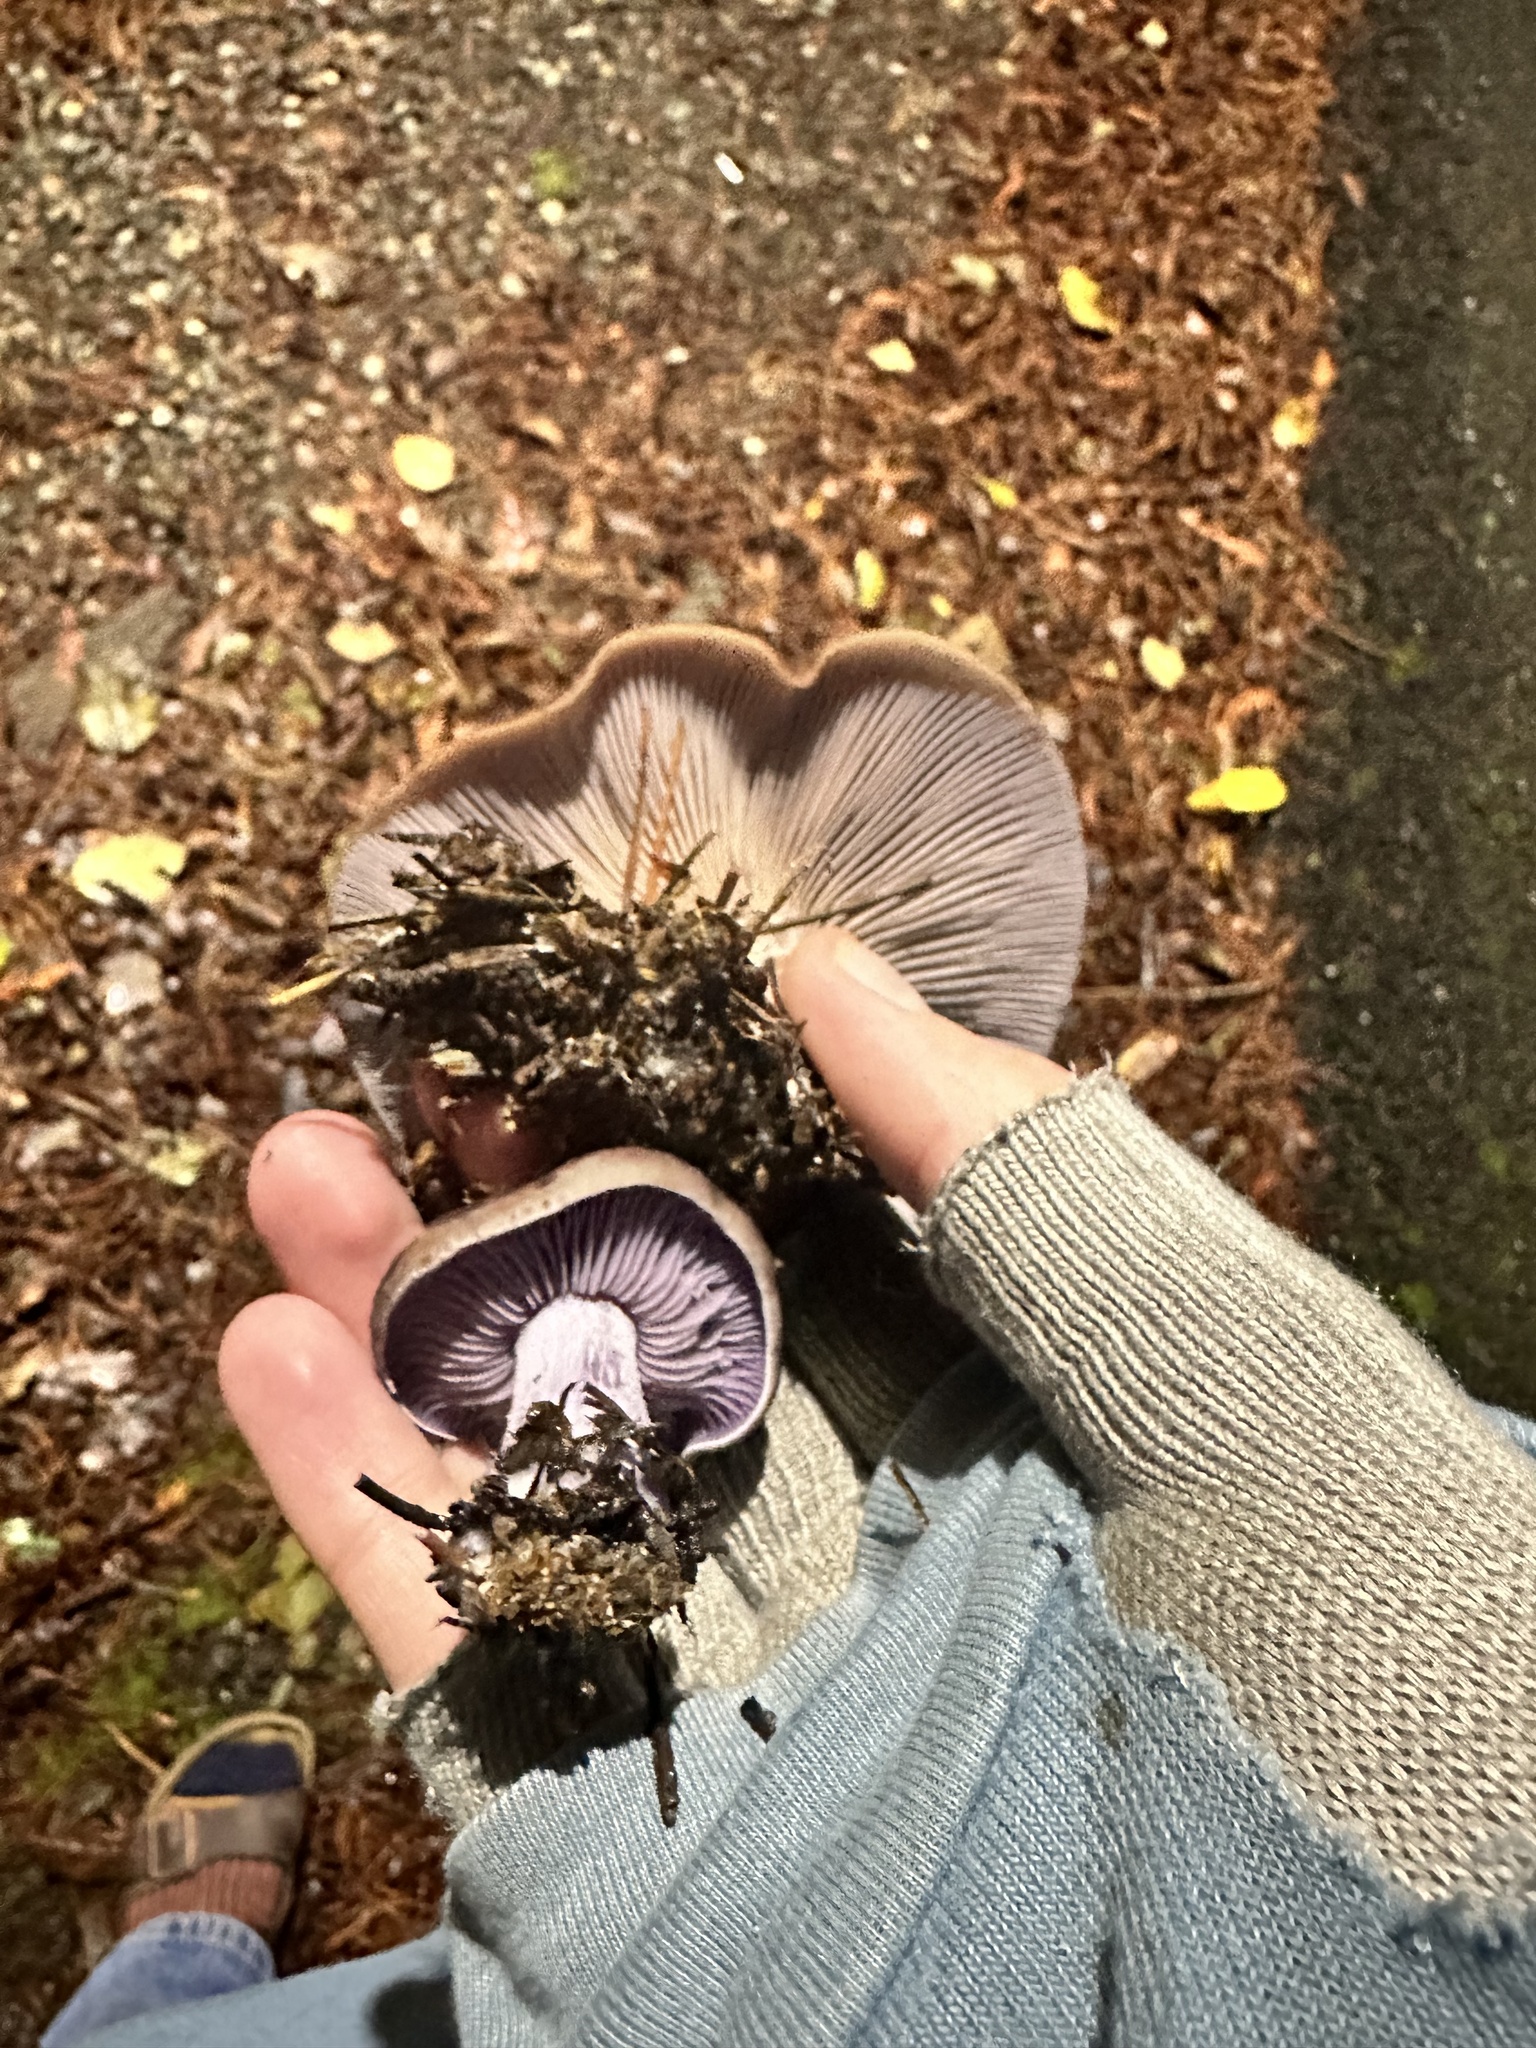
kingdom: Fungi
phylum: Basidiomycota
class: Agaricomycetes
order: Agaricales
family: Tricholomataceae
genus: Collybia
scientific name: Collybia
